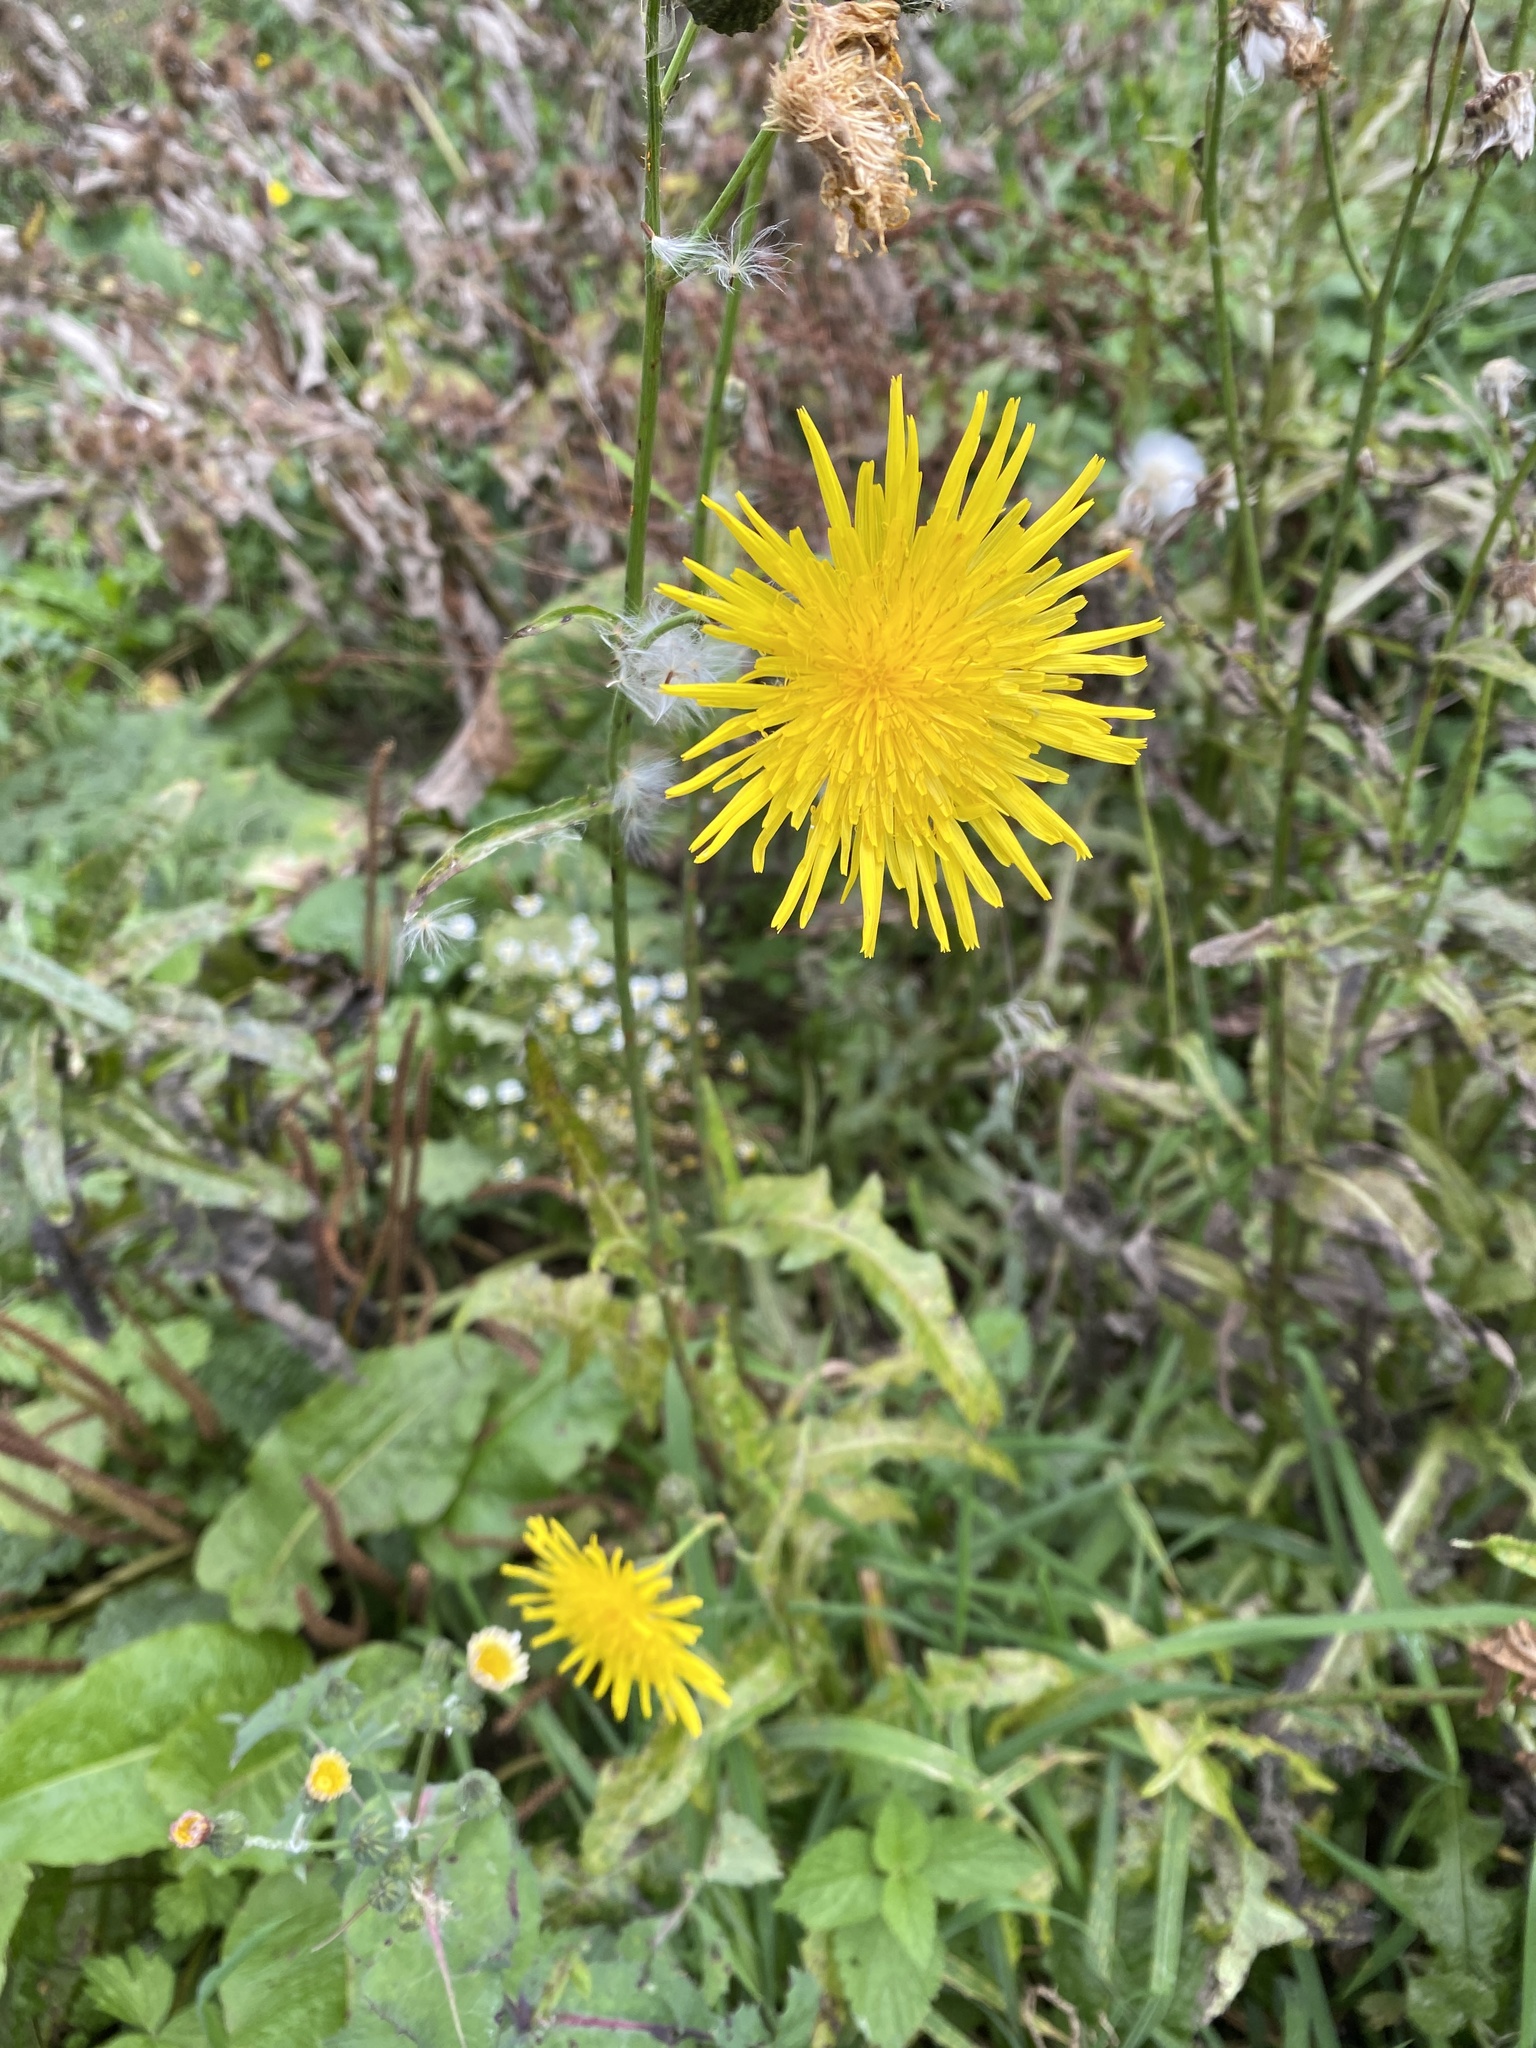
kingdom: Plantae
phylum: Tracheophyta
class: Magnoliopsida
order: Asterales
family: Asteraceae
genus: Sonchus
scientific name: Sonchus arvensis
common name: Perennial sow-thistle
